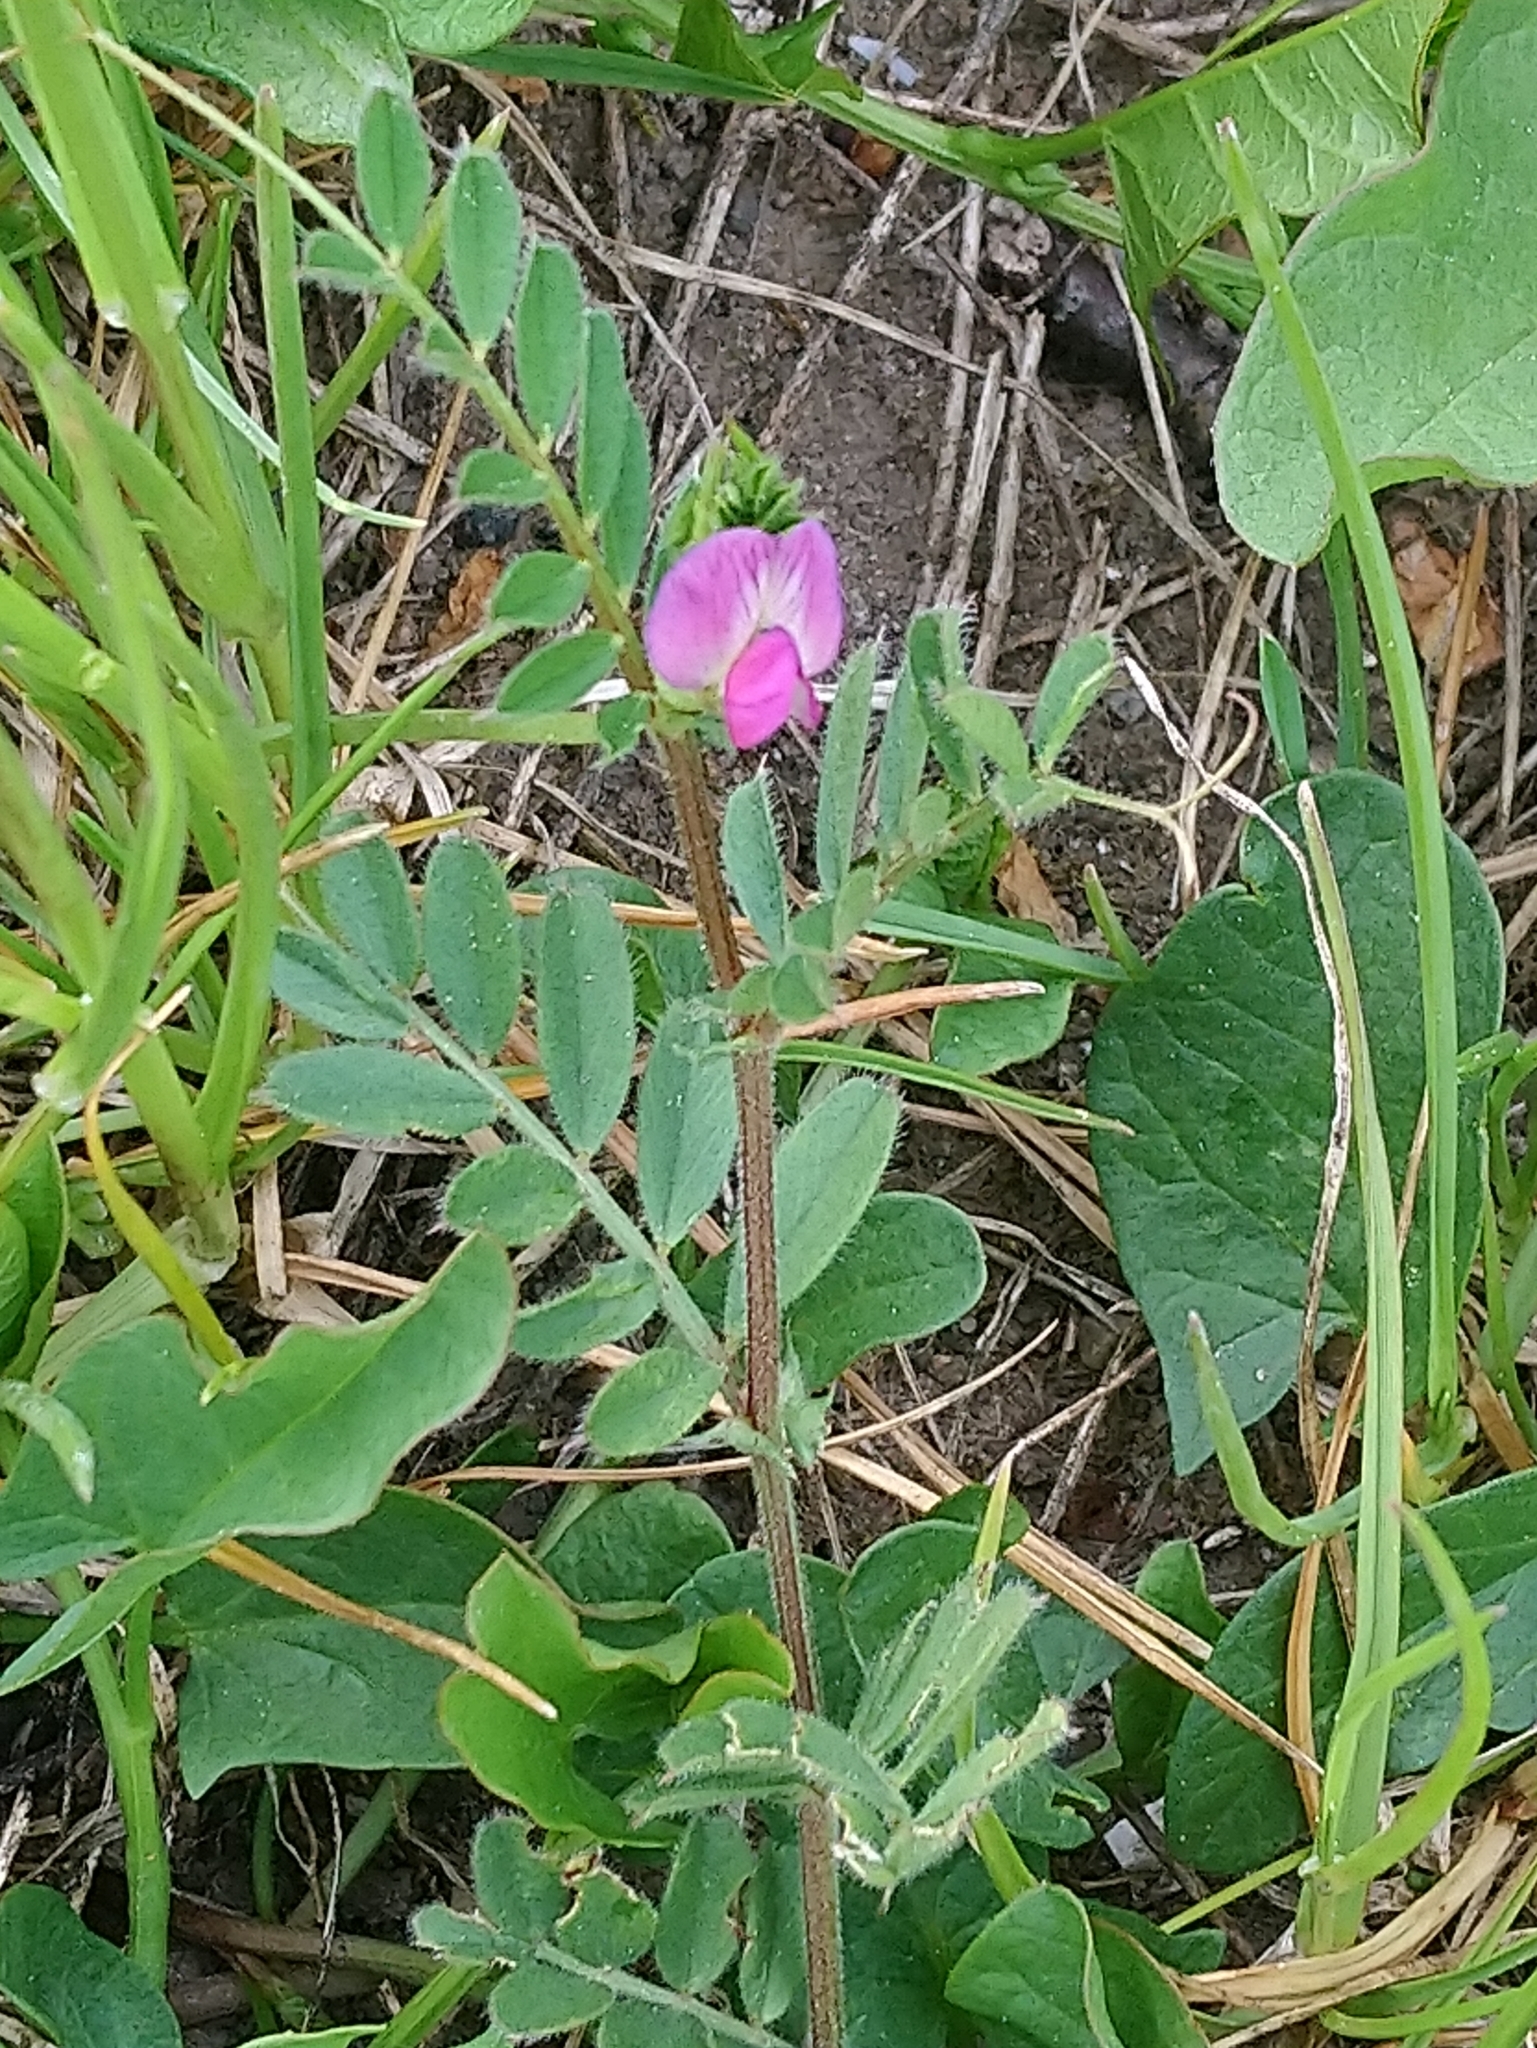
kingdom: Plantae
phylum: Tracheophyta
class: Magnoliopsida
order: Fabales
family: Fabaceae
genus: Vicia
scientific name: Vicia sativa
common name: Garden vetch
